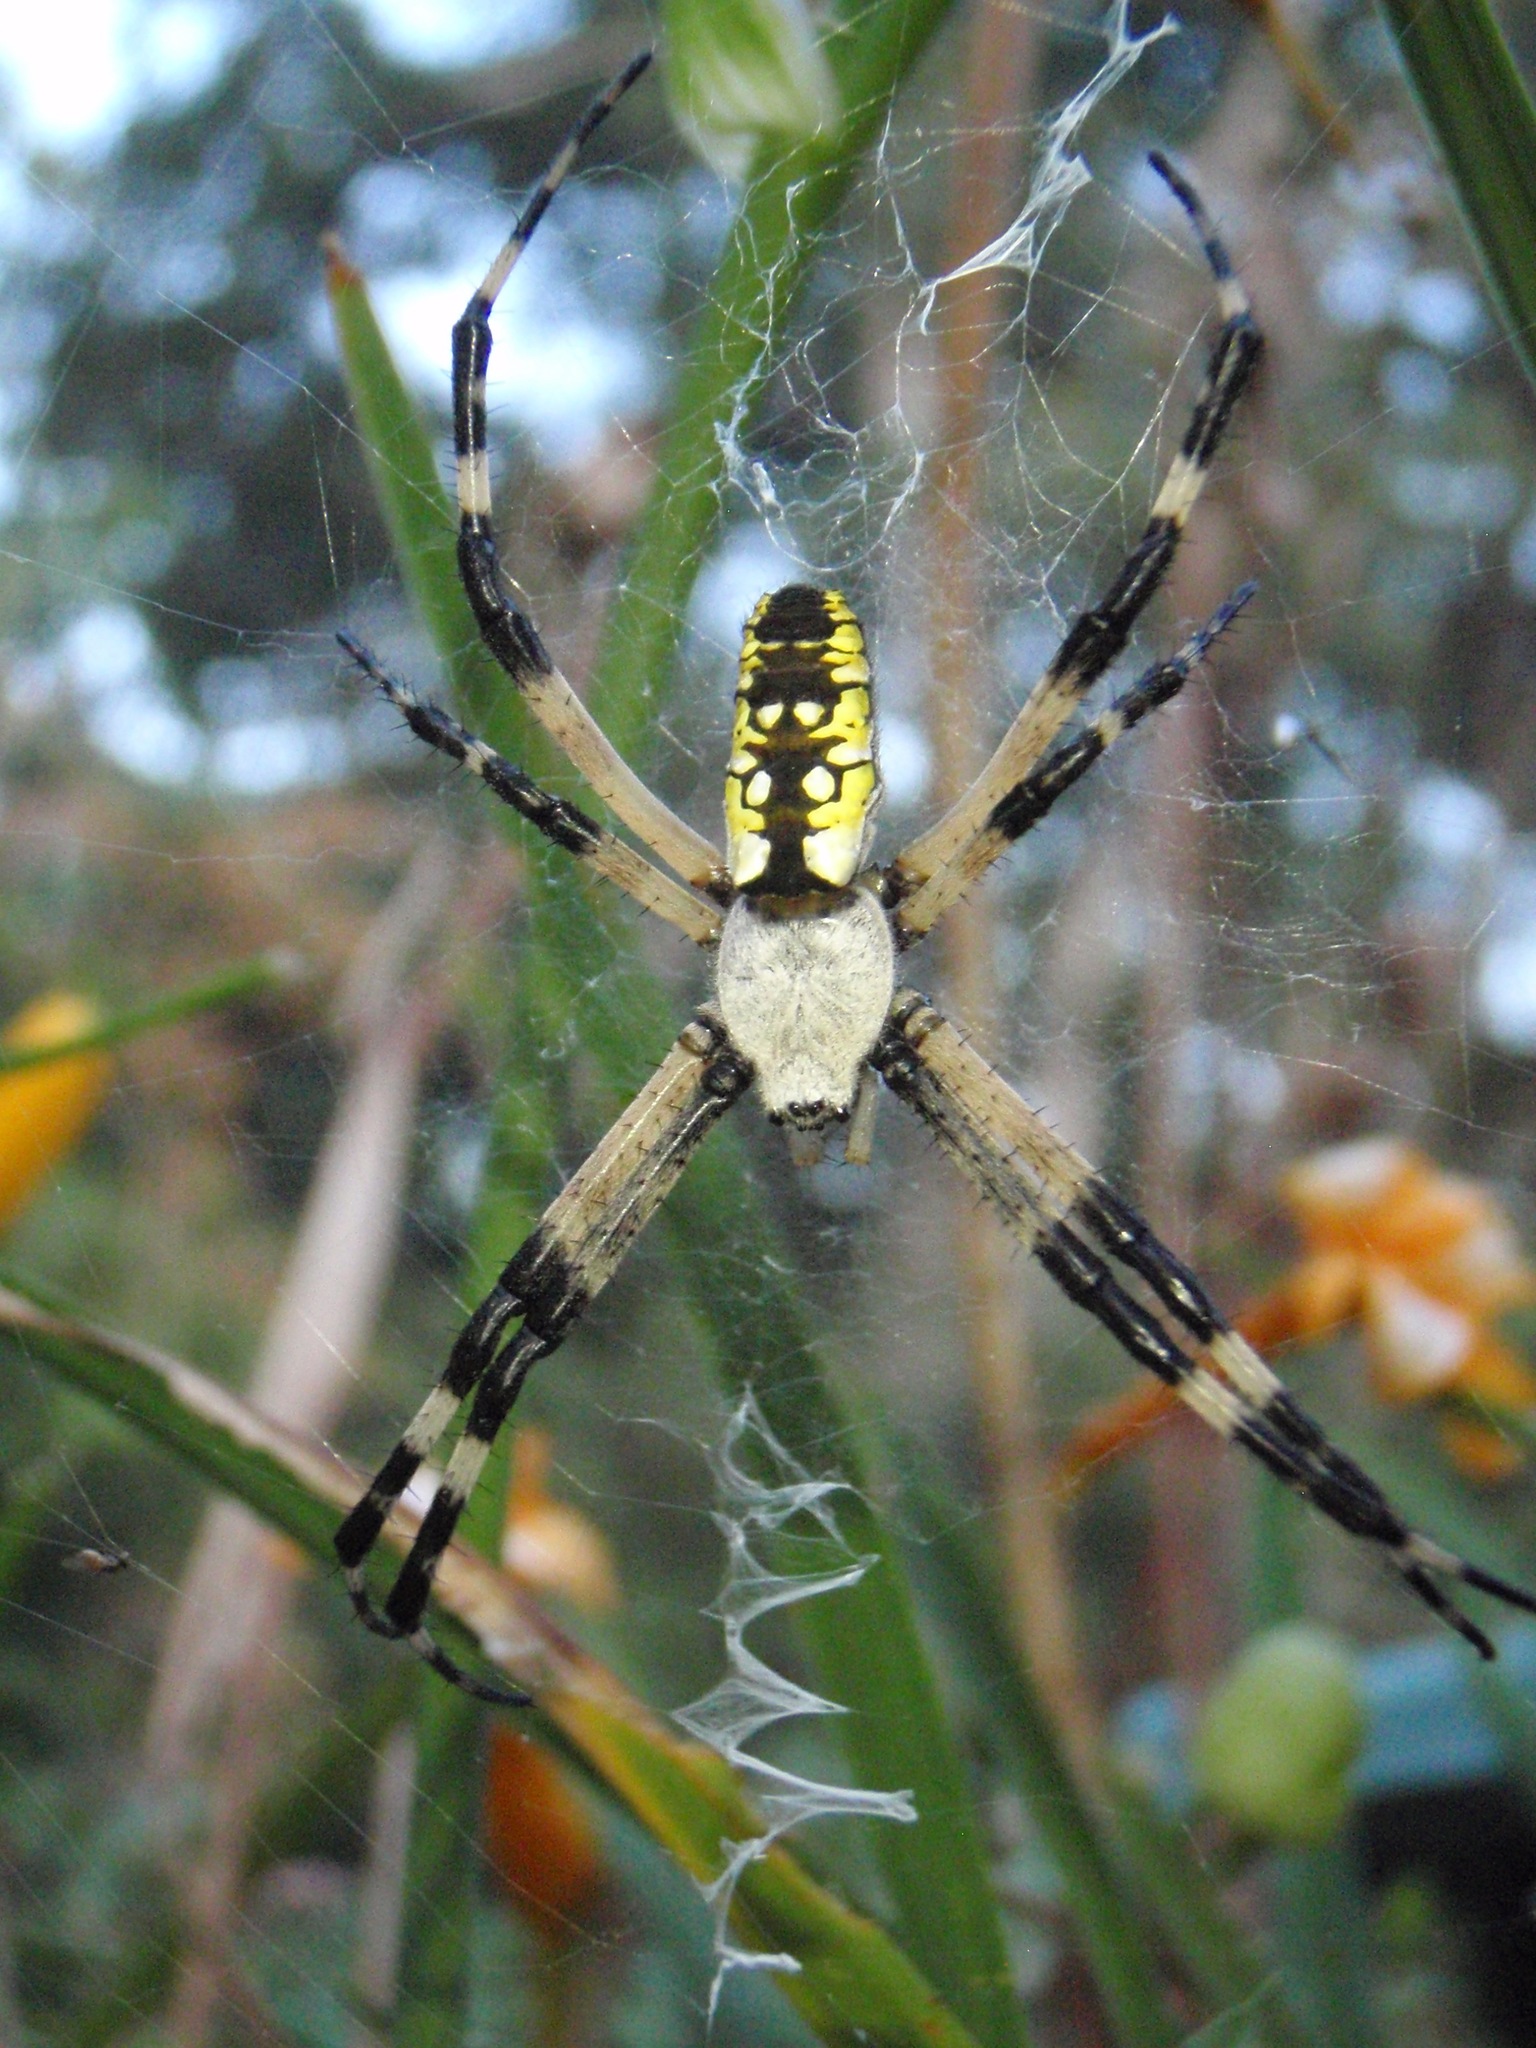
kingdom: Animalia
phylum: Arthropoda
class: Arachnida
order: Araneae
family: Araneidae
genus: Argiope
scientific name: Argiope aurantia
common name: Orb weavers
